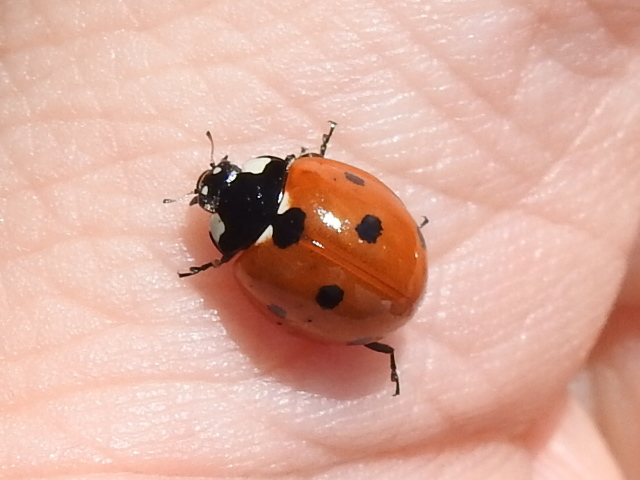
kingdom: Animalia
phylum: Arthropoda
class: Insecta
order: Coleoptera
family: Coccinellidae
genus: Coccinella
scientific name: Coccinella septempunctata
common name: Sevenspotted lady beetle
